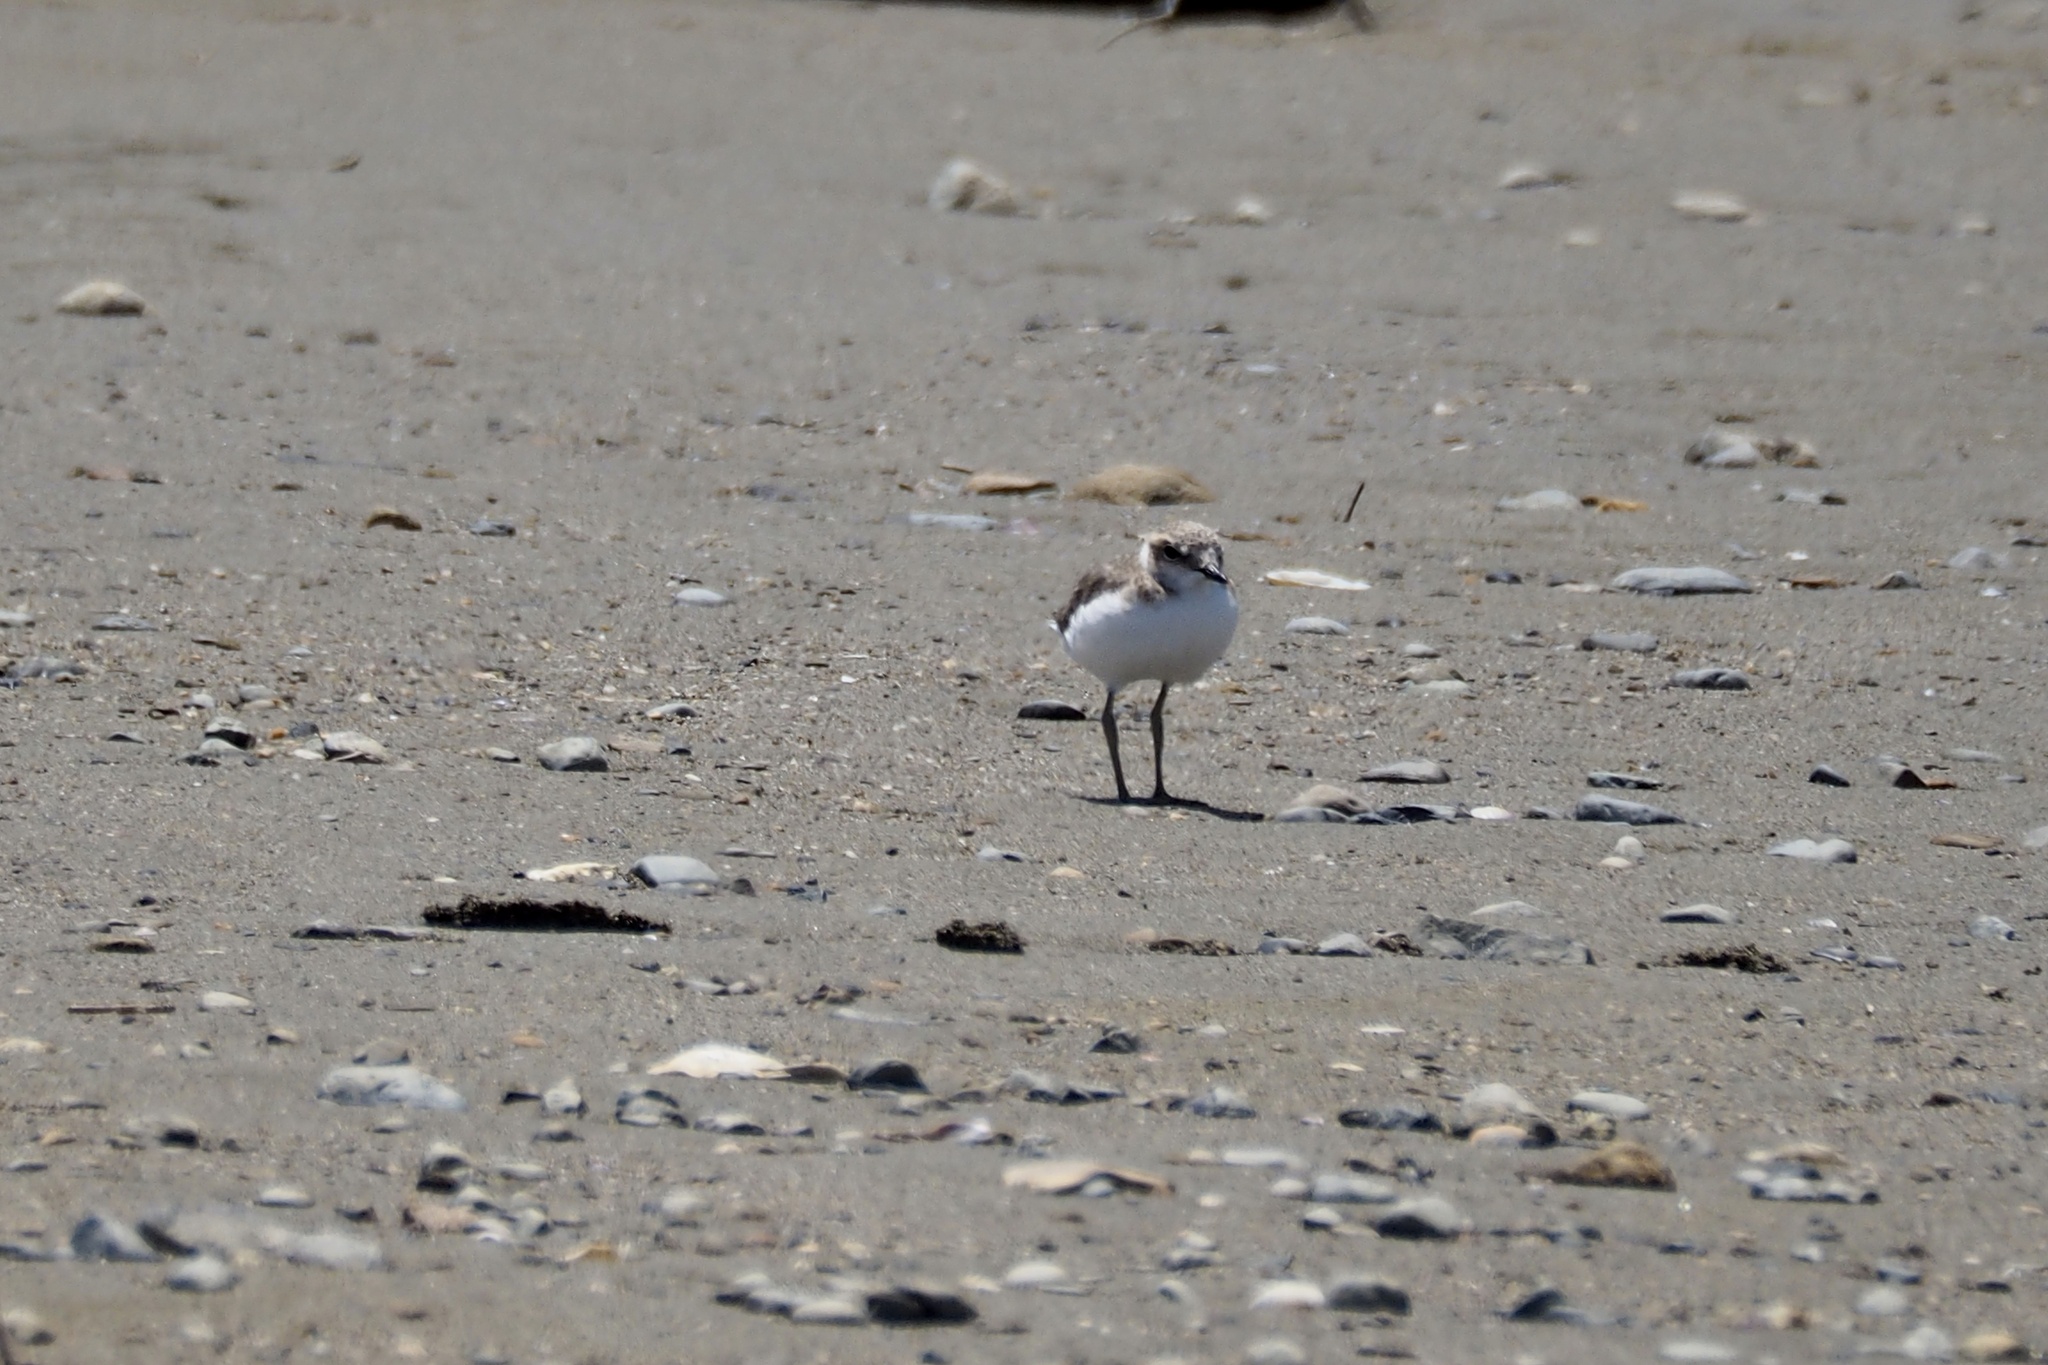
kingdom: Animalia
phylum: Chordata
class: Aves
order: Charadriiformes
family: Charadriidae
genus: Charadrius
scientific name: Charadrius alexandrinus
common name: Kentish plover
